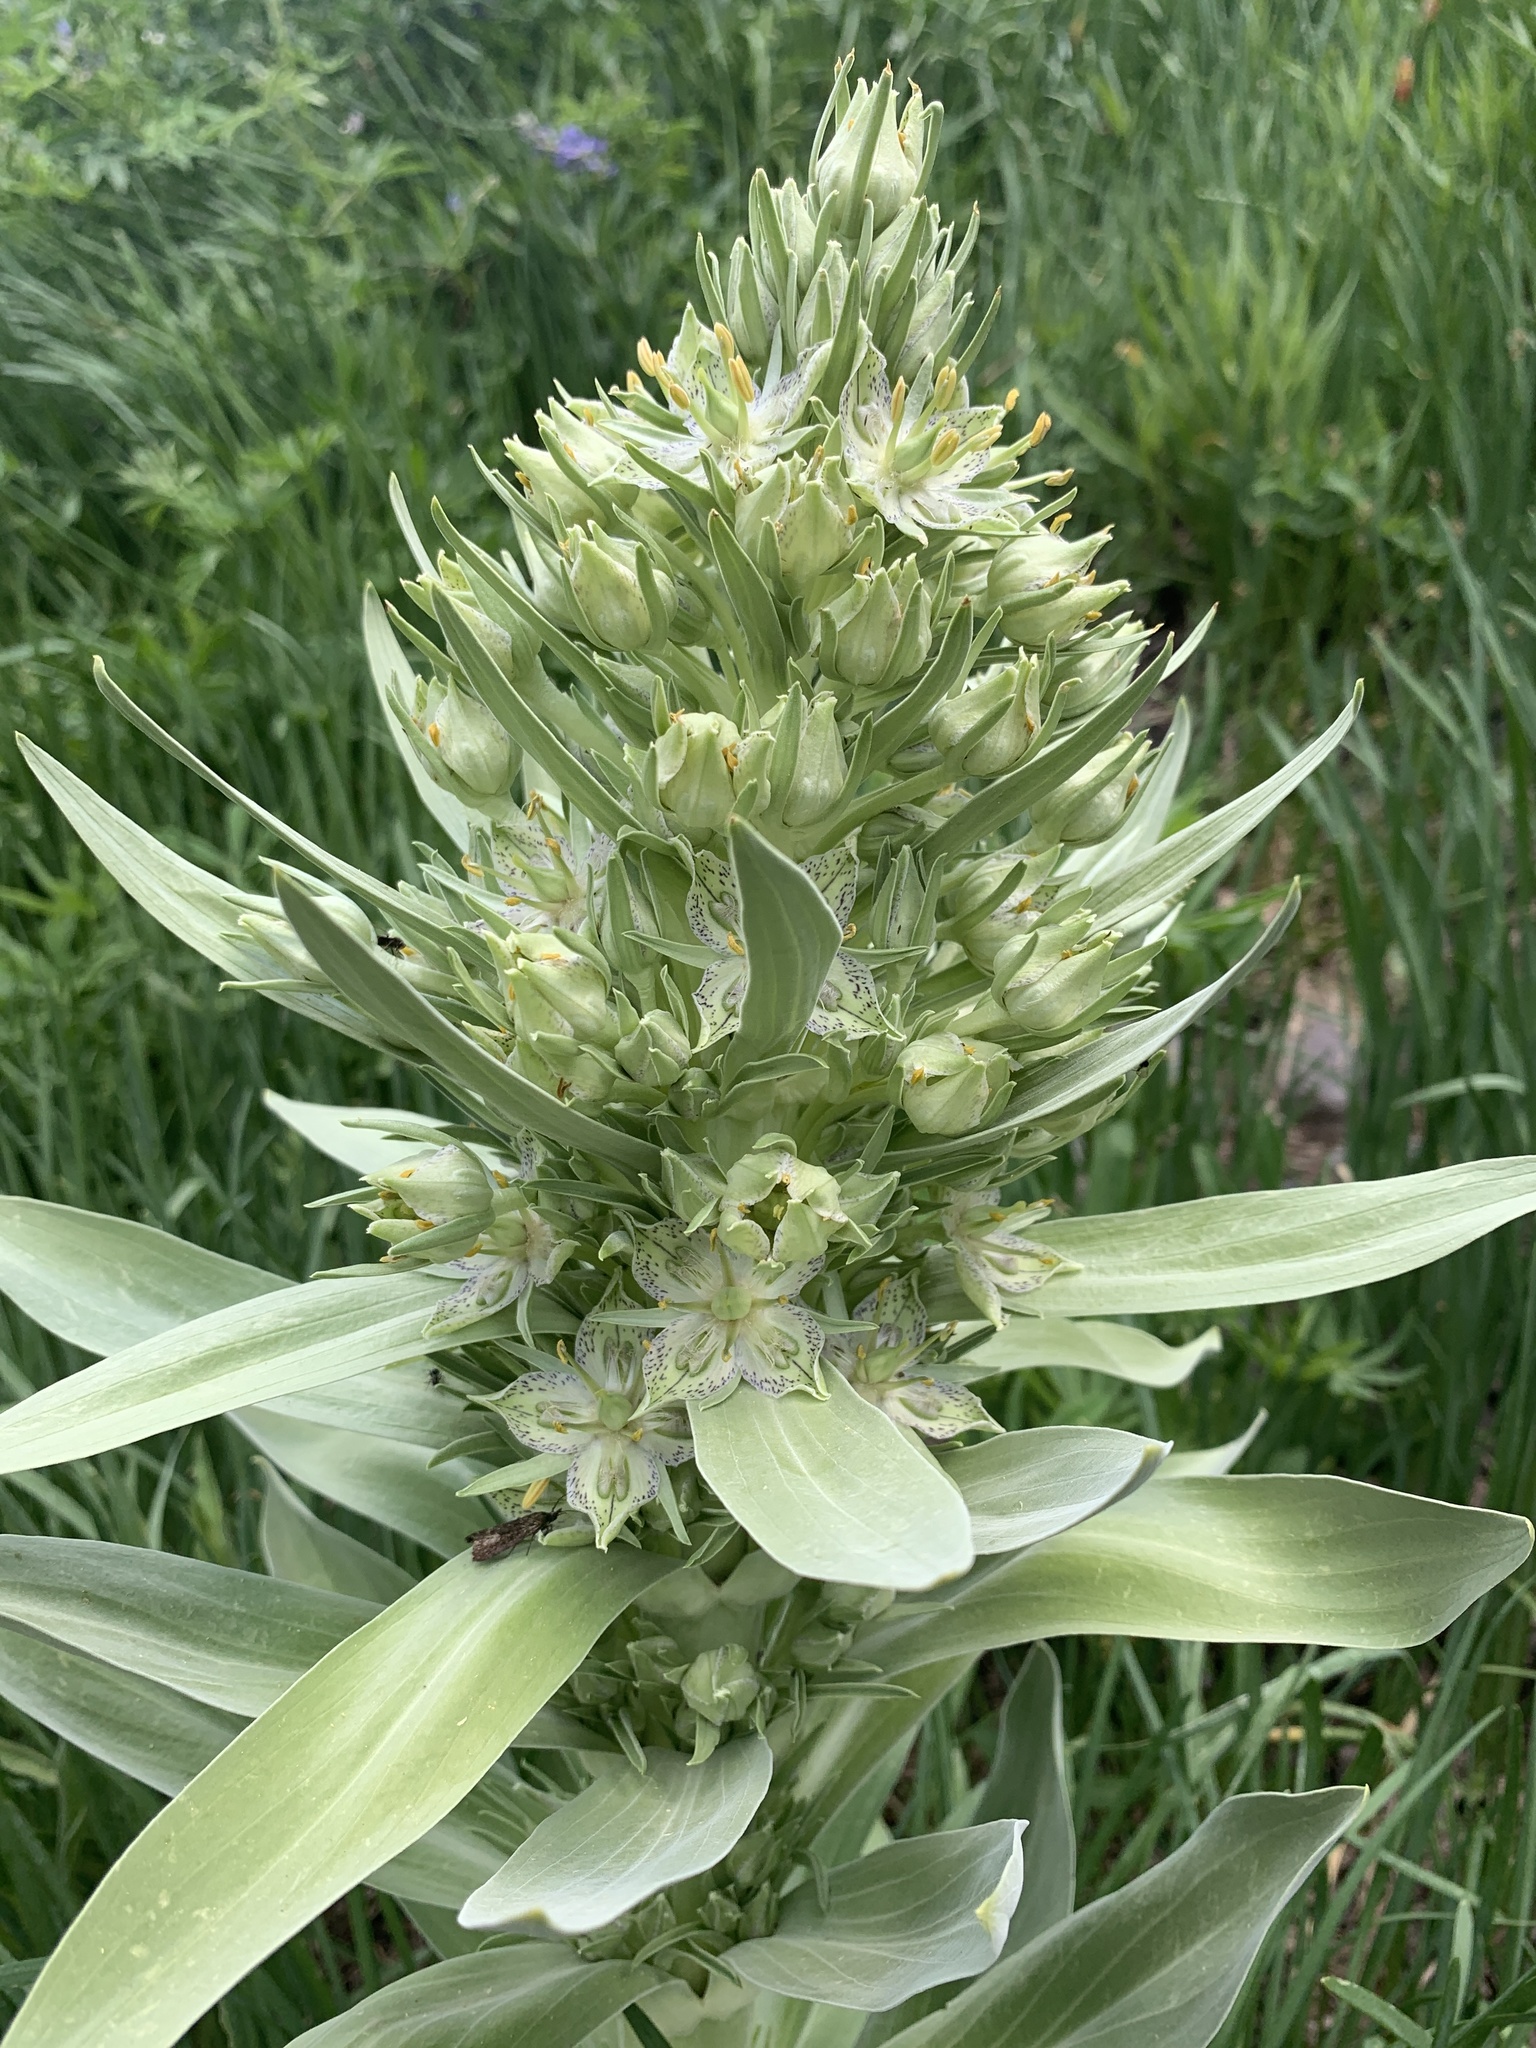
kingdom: Plantae
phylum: Tracheophyta
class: Magnoliopsida
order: Gentianales
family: Gentianaceae
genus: Frasera
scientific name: Frasera speciosa
